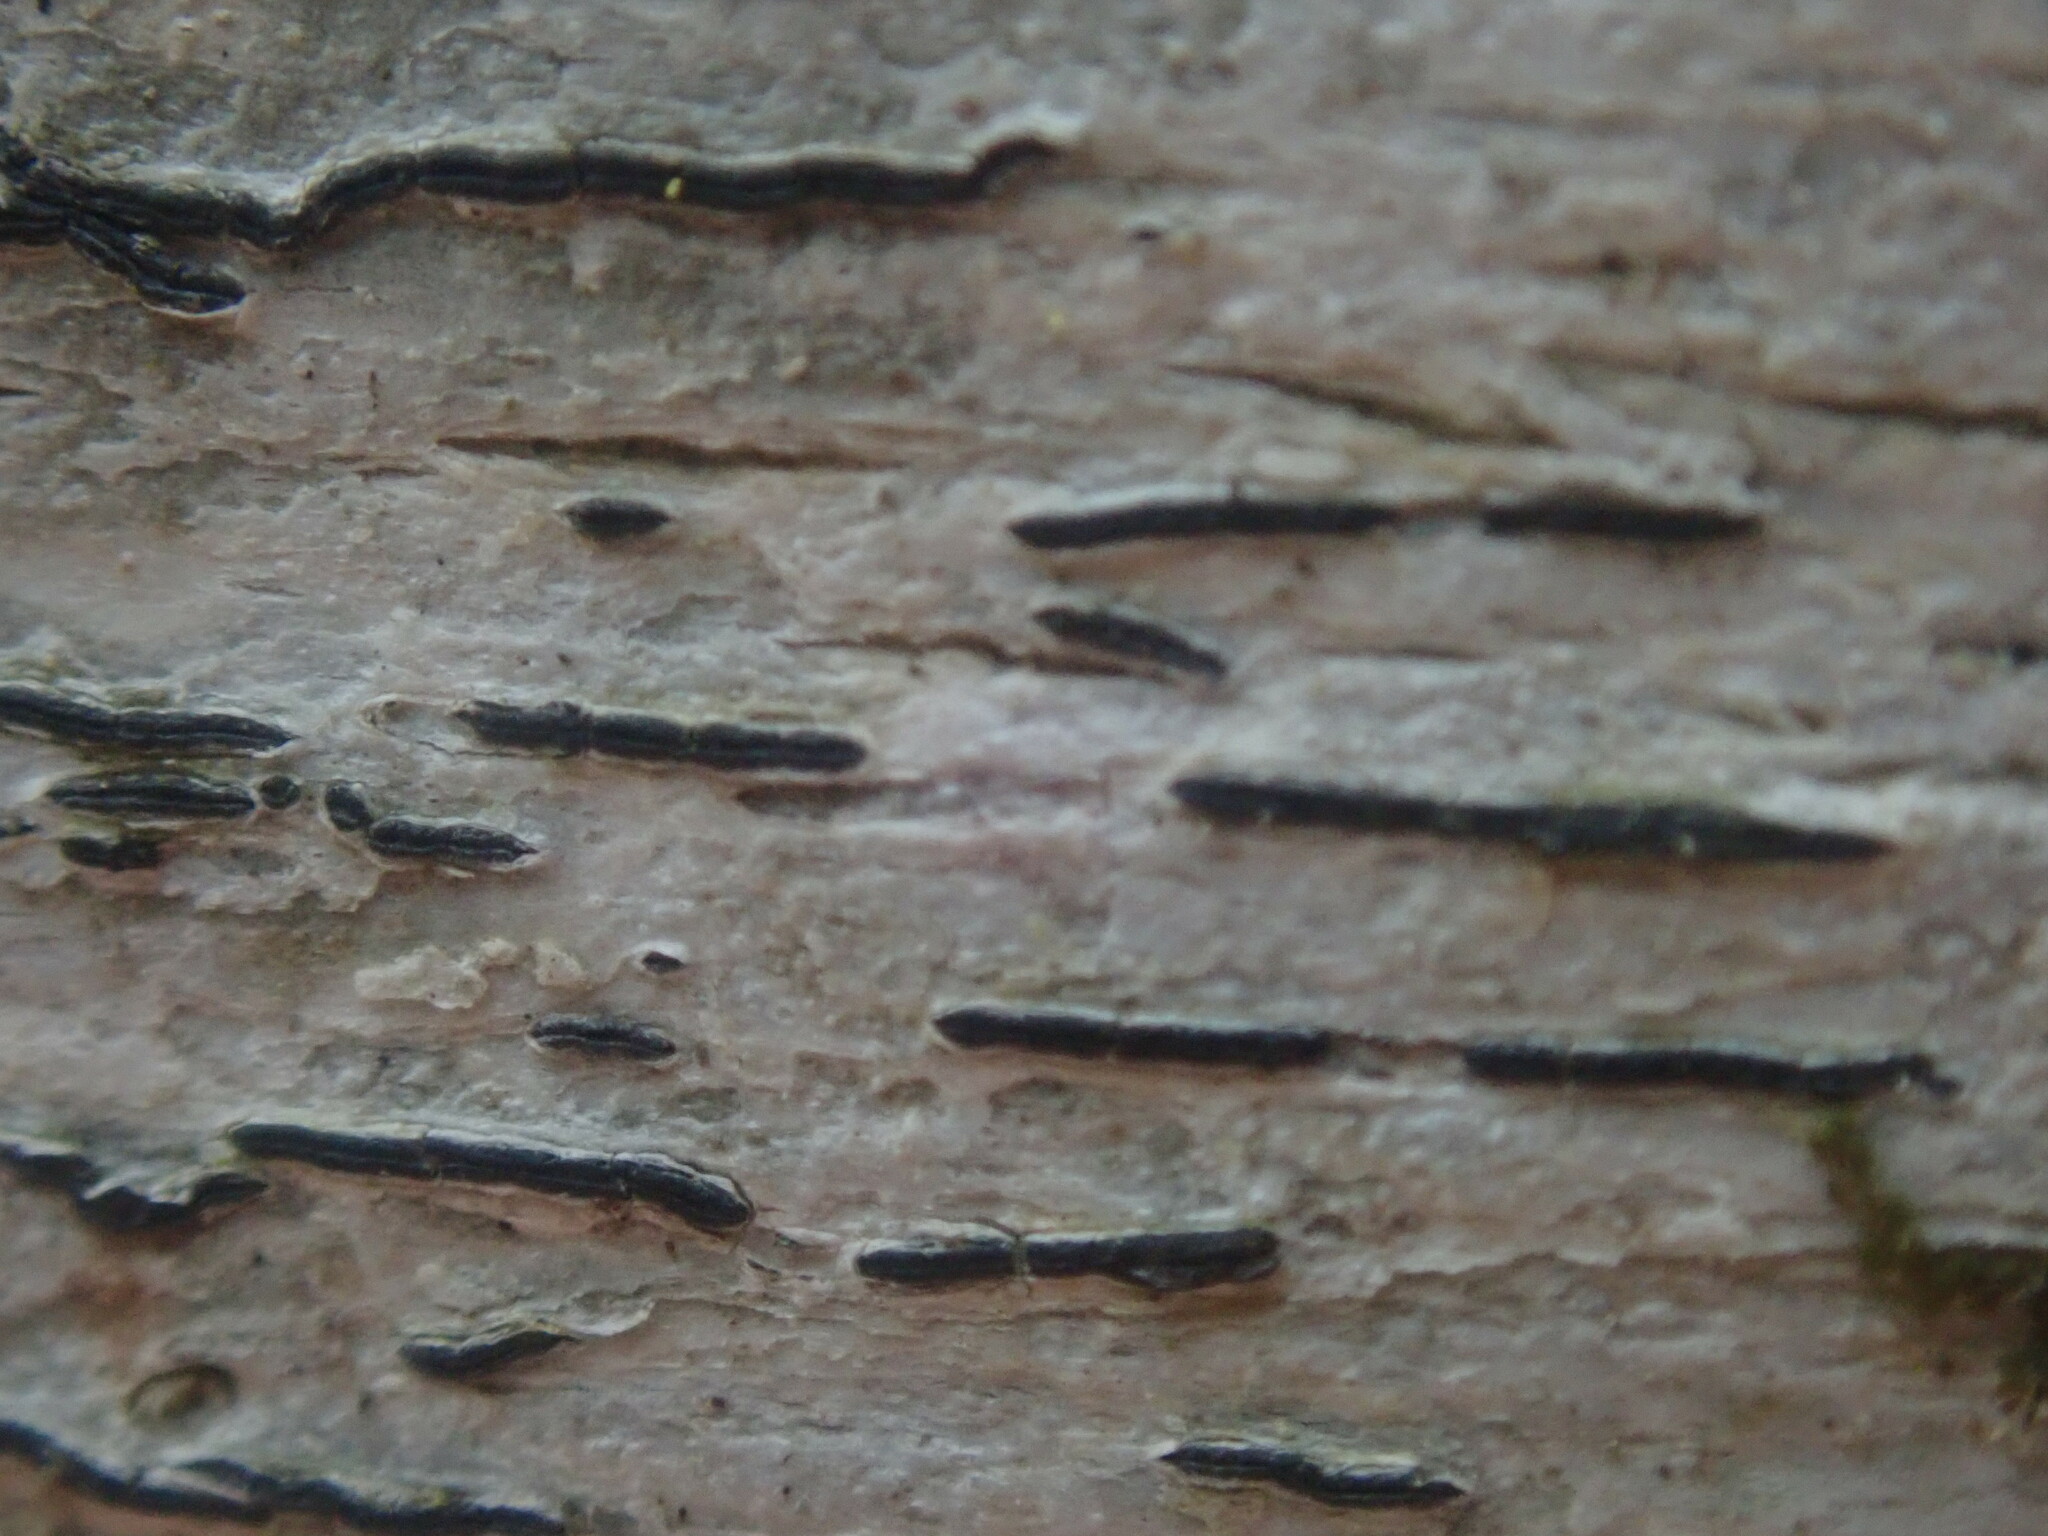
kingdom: Fungi
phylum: Ascomycota
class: Lecanoromycetes
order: Ostropales
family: Graphidaceae
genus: Graphis
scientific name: Graphis scripta
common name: Script lichen
